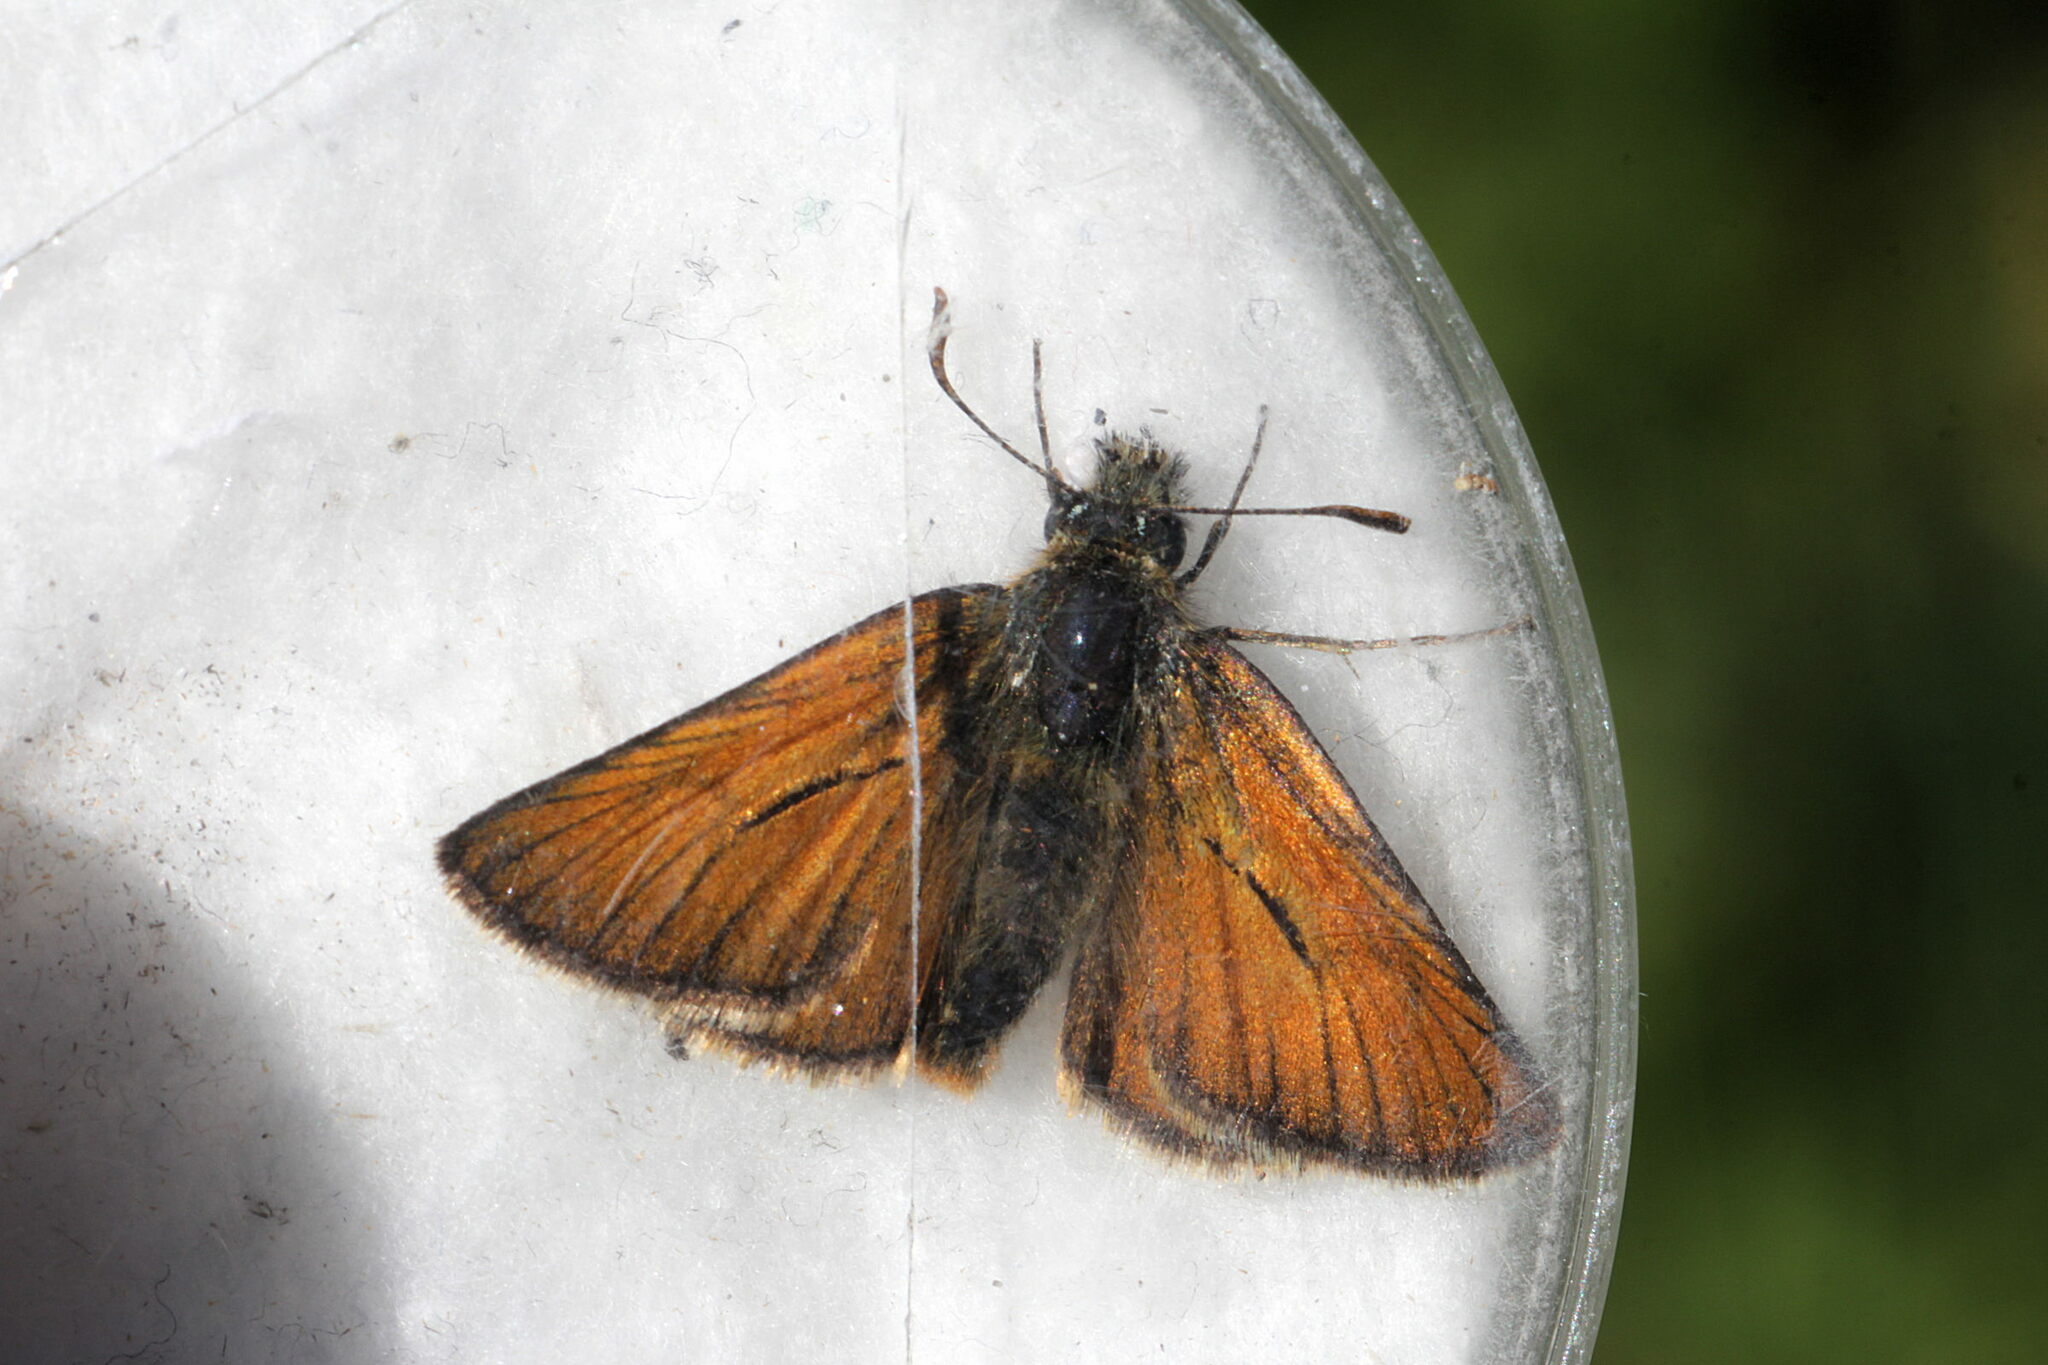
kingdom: Animalia
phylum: Arthropoda
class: Insecta
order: Lepidoptera
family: Hesperiidae
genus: Thymelicus
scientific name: Thymelicus sylvestris
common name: Small skipper
